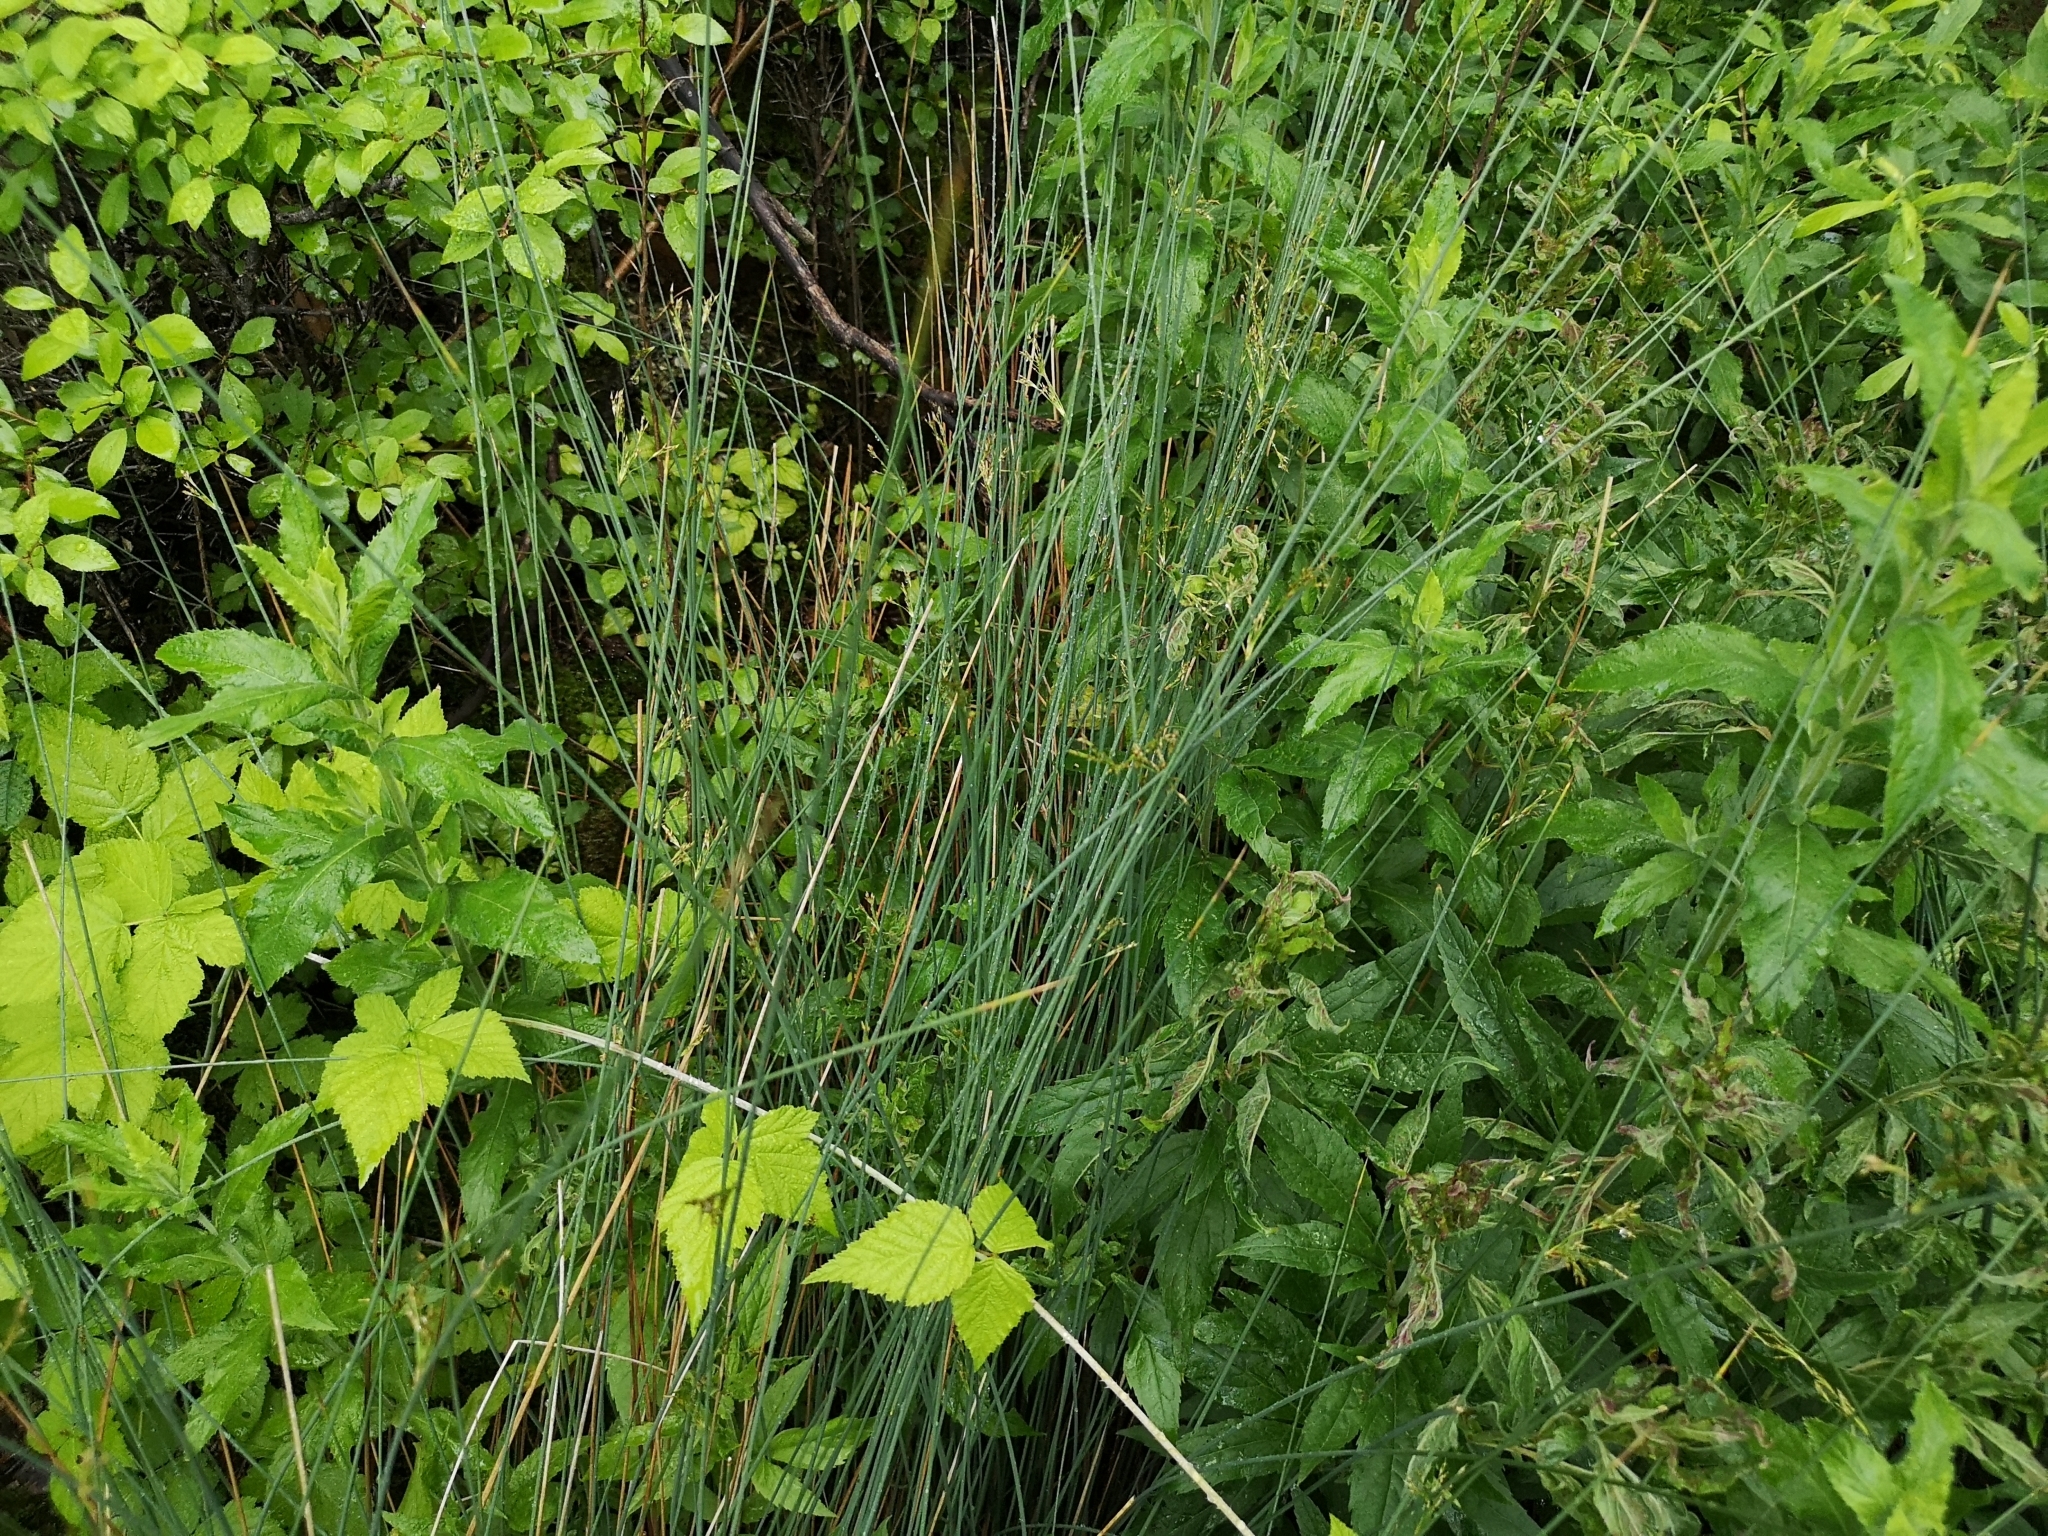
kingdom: Plantae
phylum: Tracheophyta
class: Liliopsida
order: Poales
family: Juncaceae
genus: Juncus
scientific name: Juncus inflexus
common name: Hard rush
